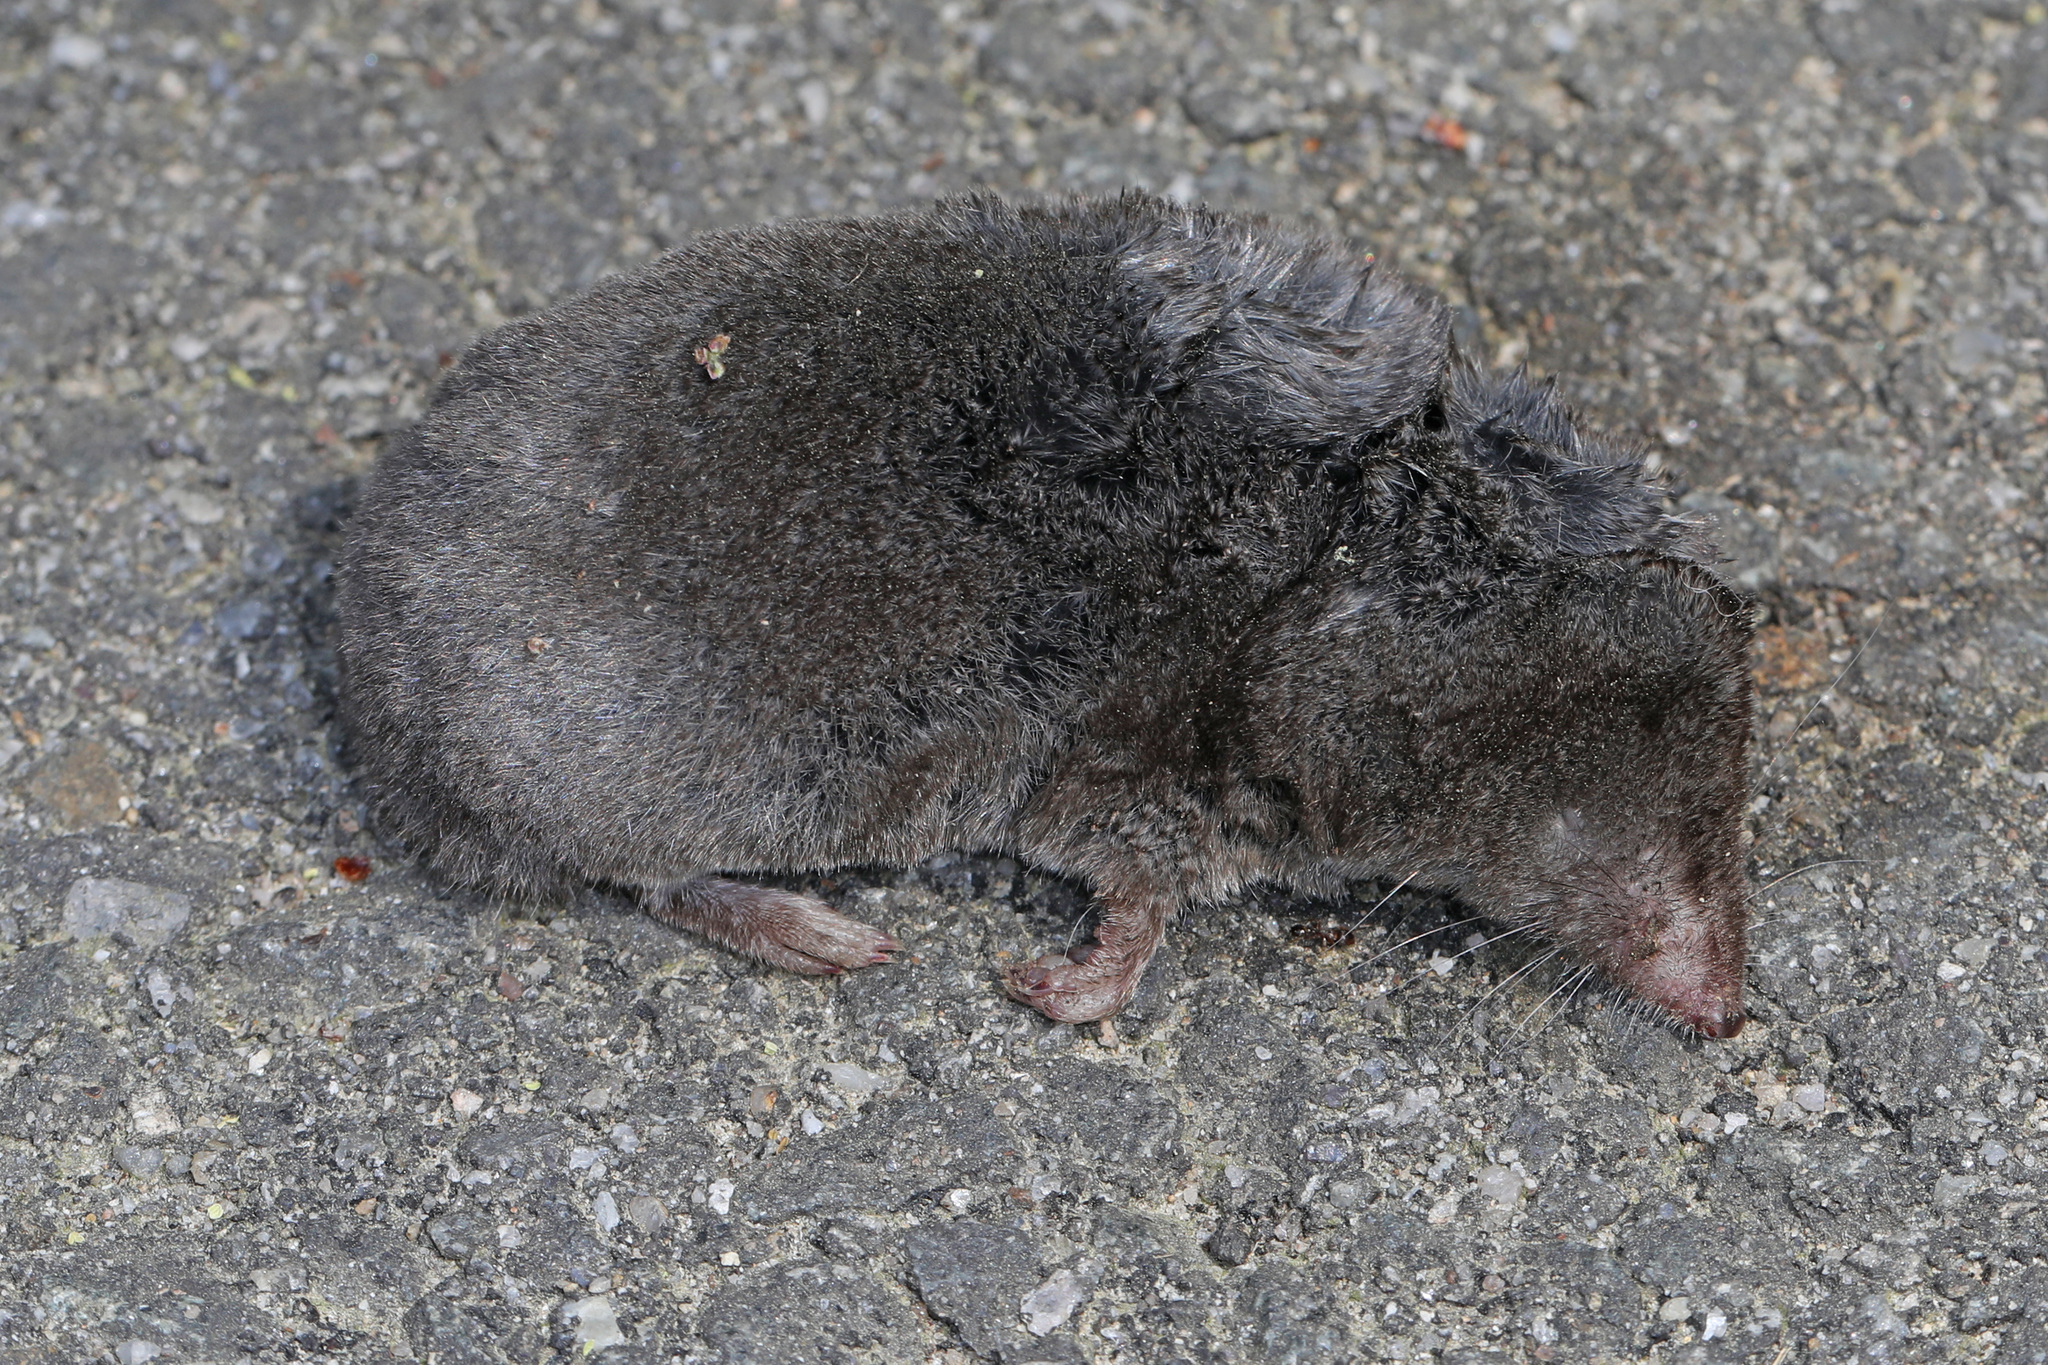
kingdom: Animalia
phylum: Chordata
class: Mammalia
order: Soricomorpha
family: Soricidae
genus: Blarina
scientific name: Blarina brevicauda
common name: Northern short-tailed shrew
